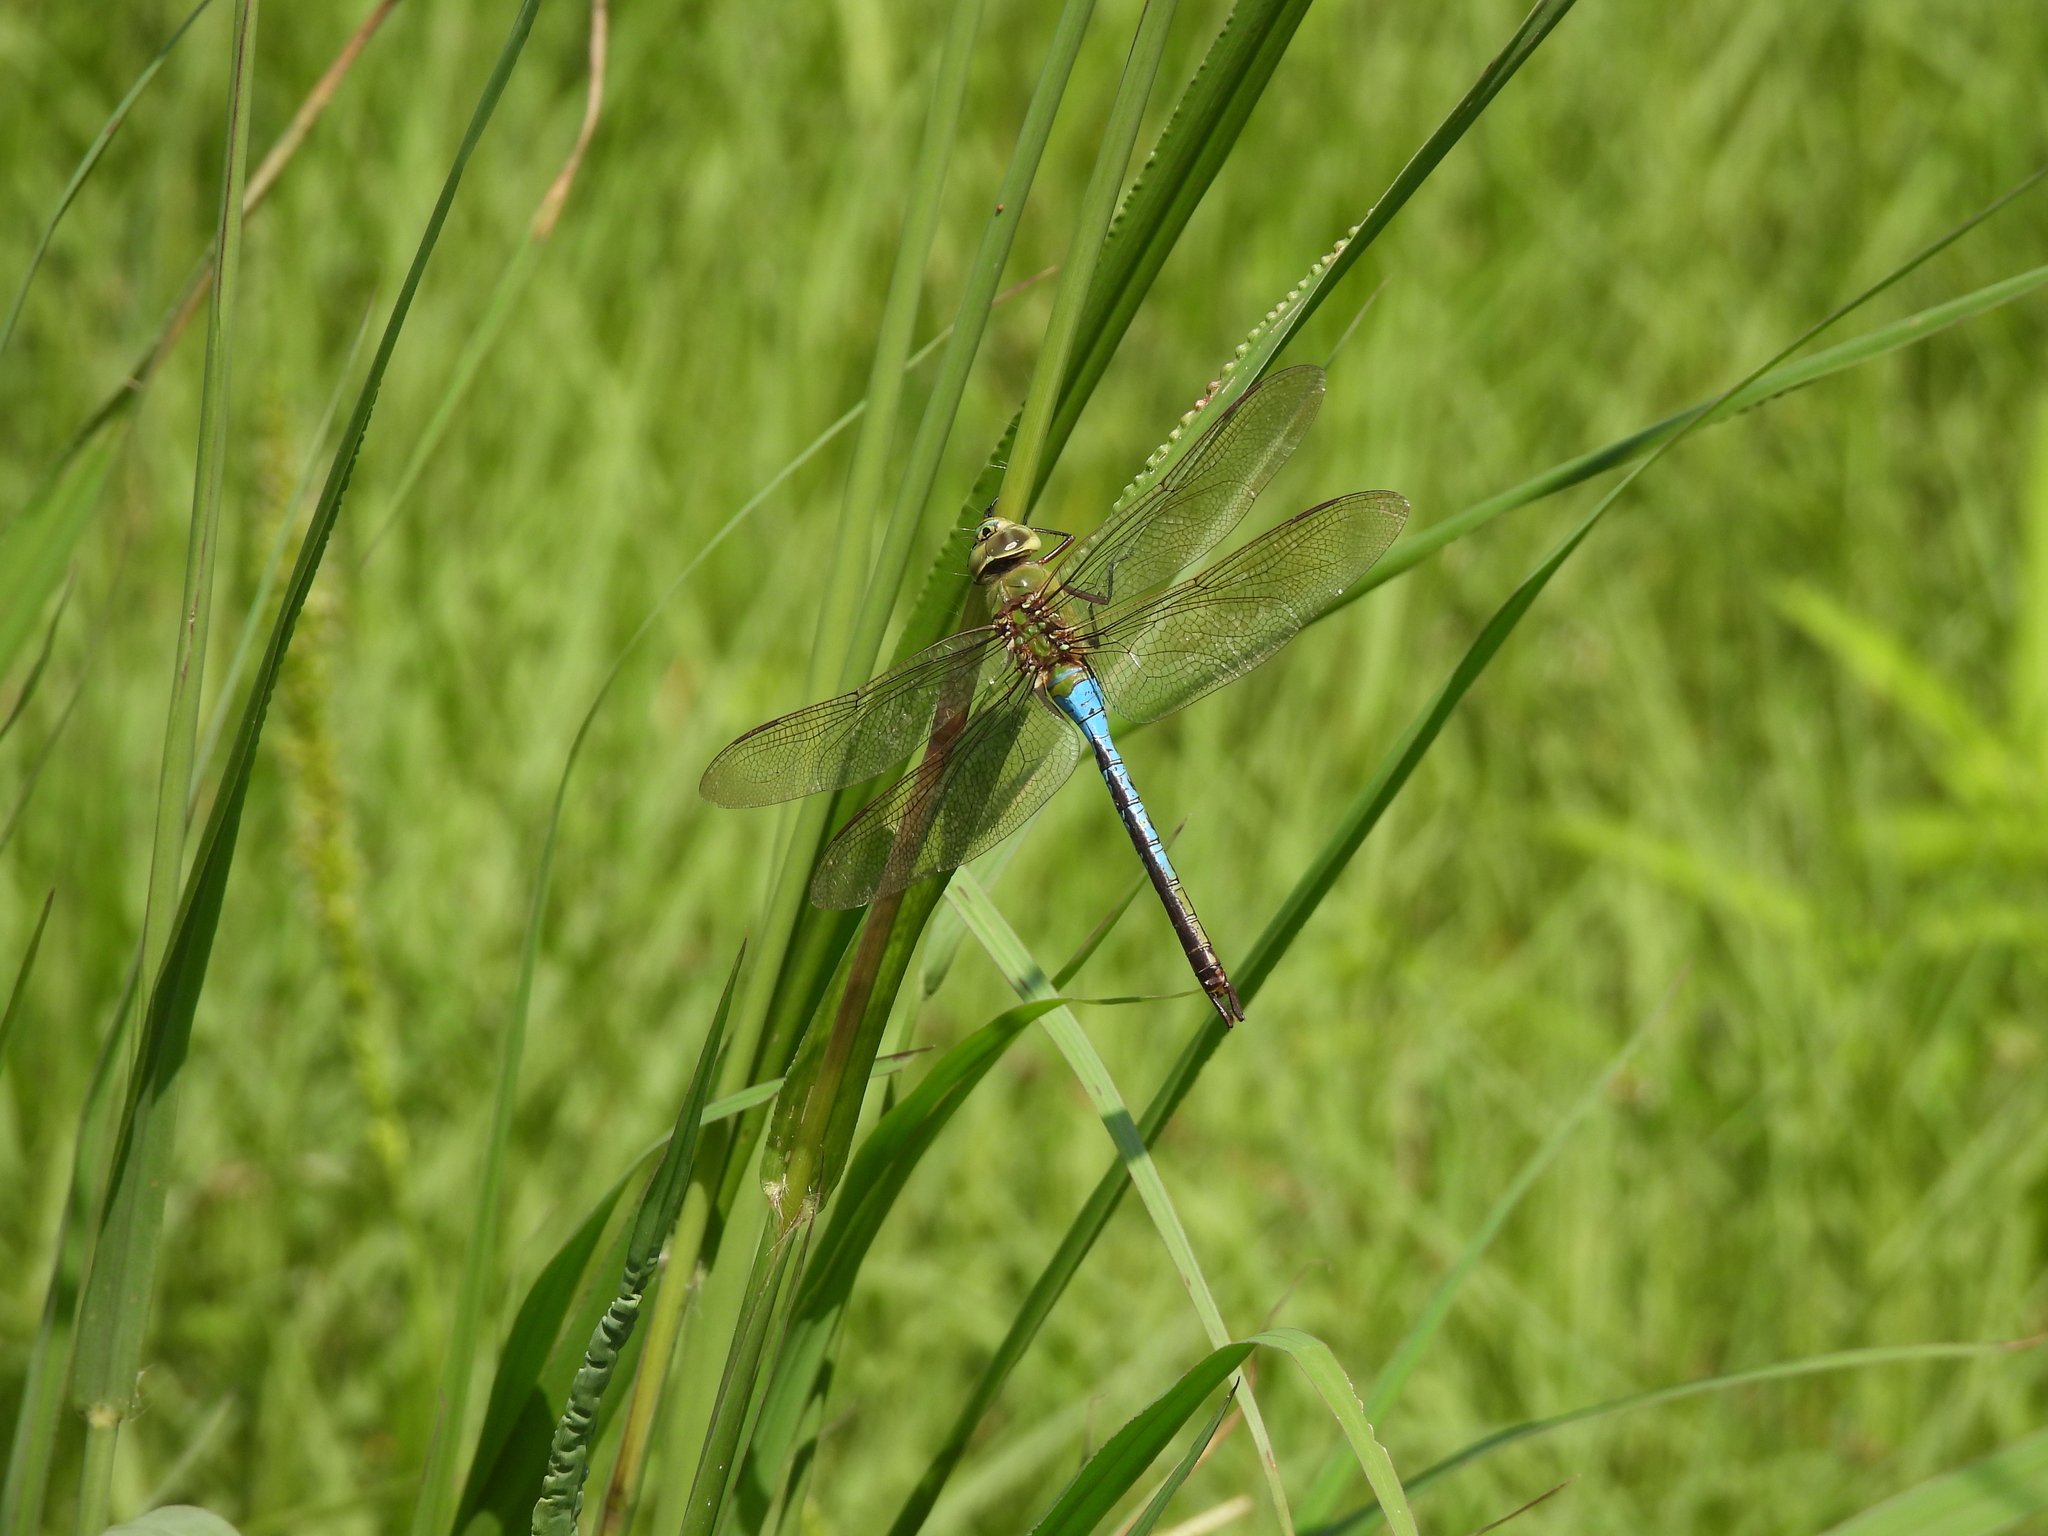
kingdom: Animalia
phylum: Arthropoda
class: Insecta
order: Odonata
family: Aeshnidae
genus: Anax
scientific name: Anax junius
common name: Common green darner
